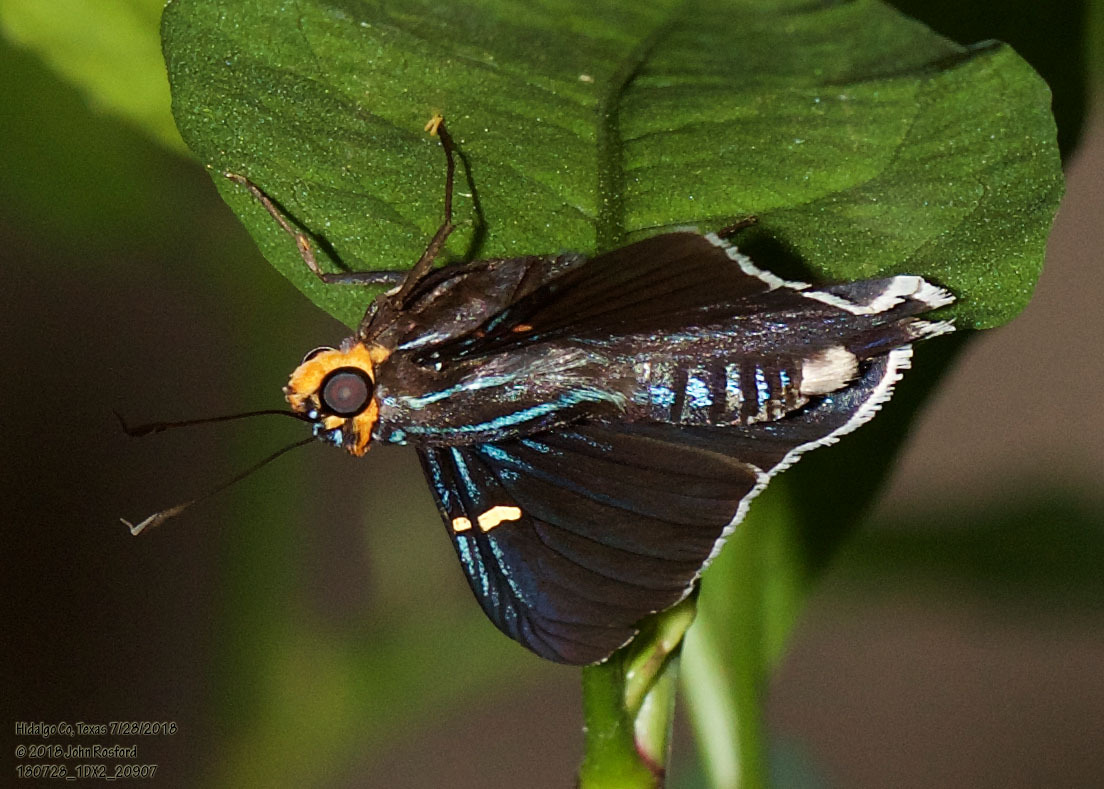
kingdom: Animalia
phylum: Arthropoda
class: Insecta
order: Lepidoptera
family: Hesperiidae
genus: Phocides
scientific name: Phocides lilea
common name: Guava skipper
